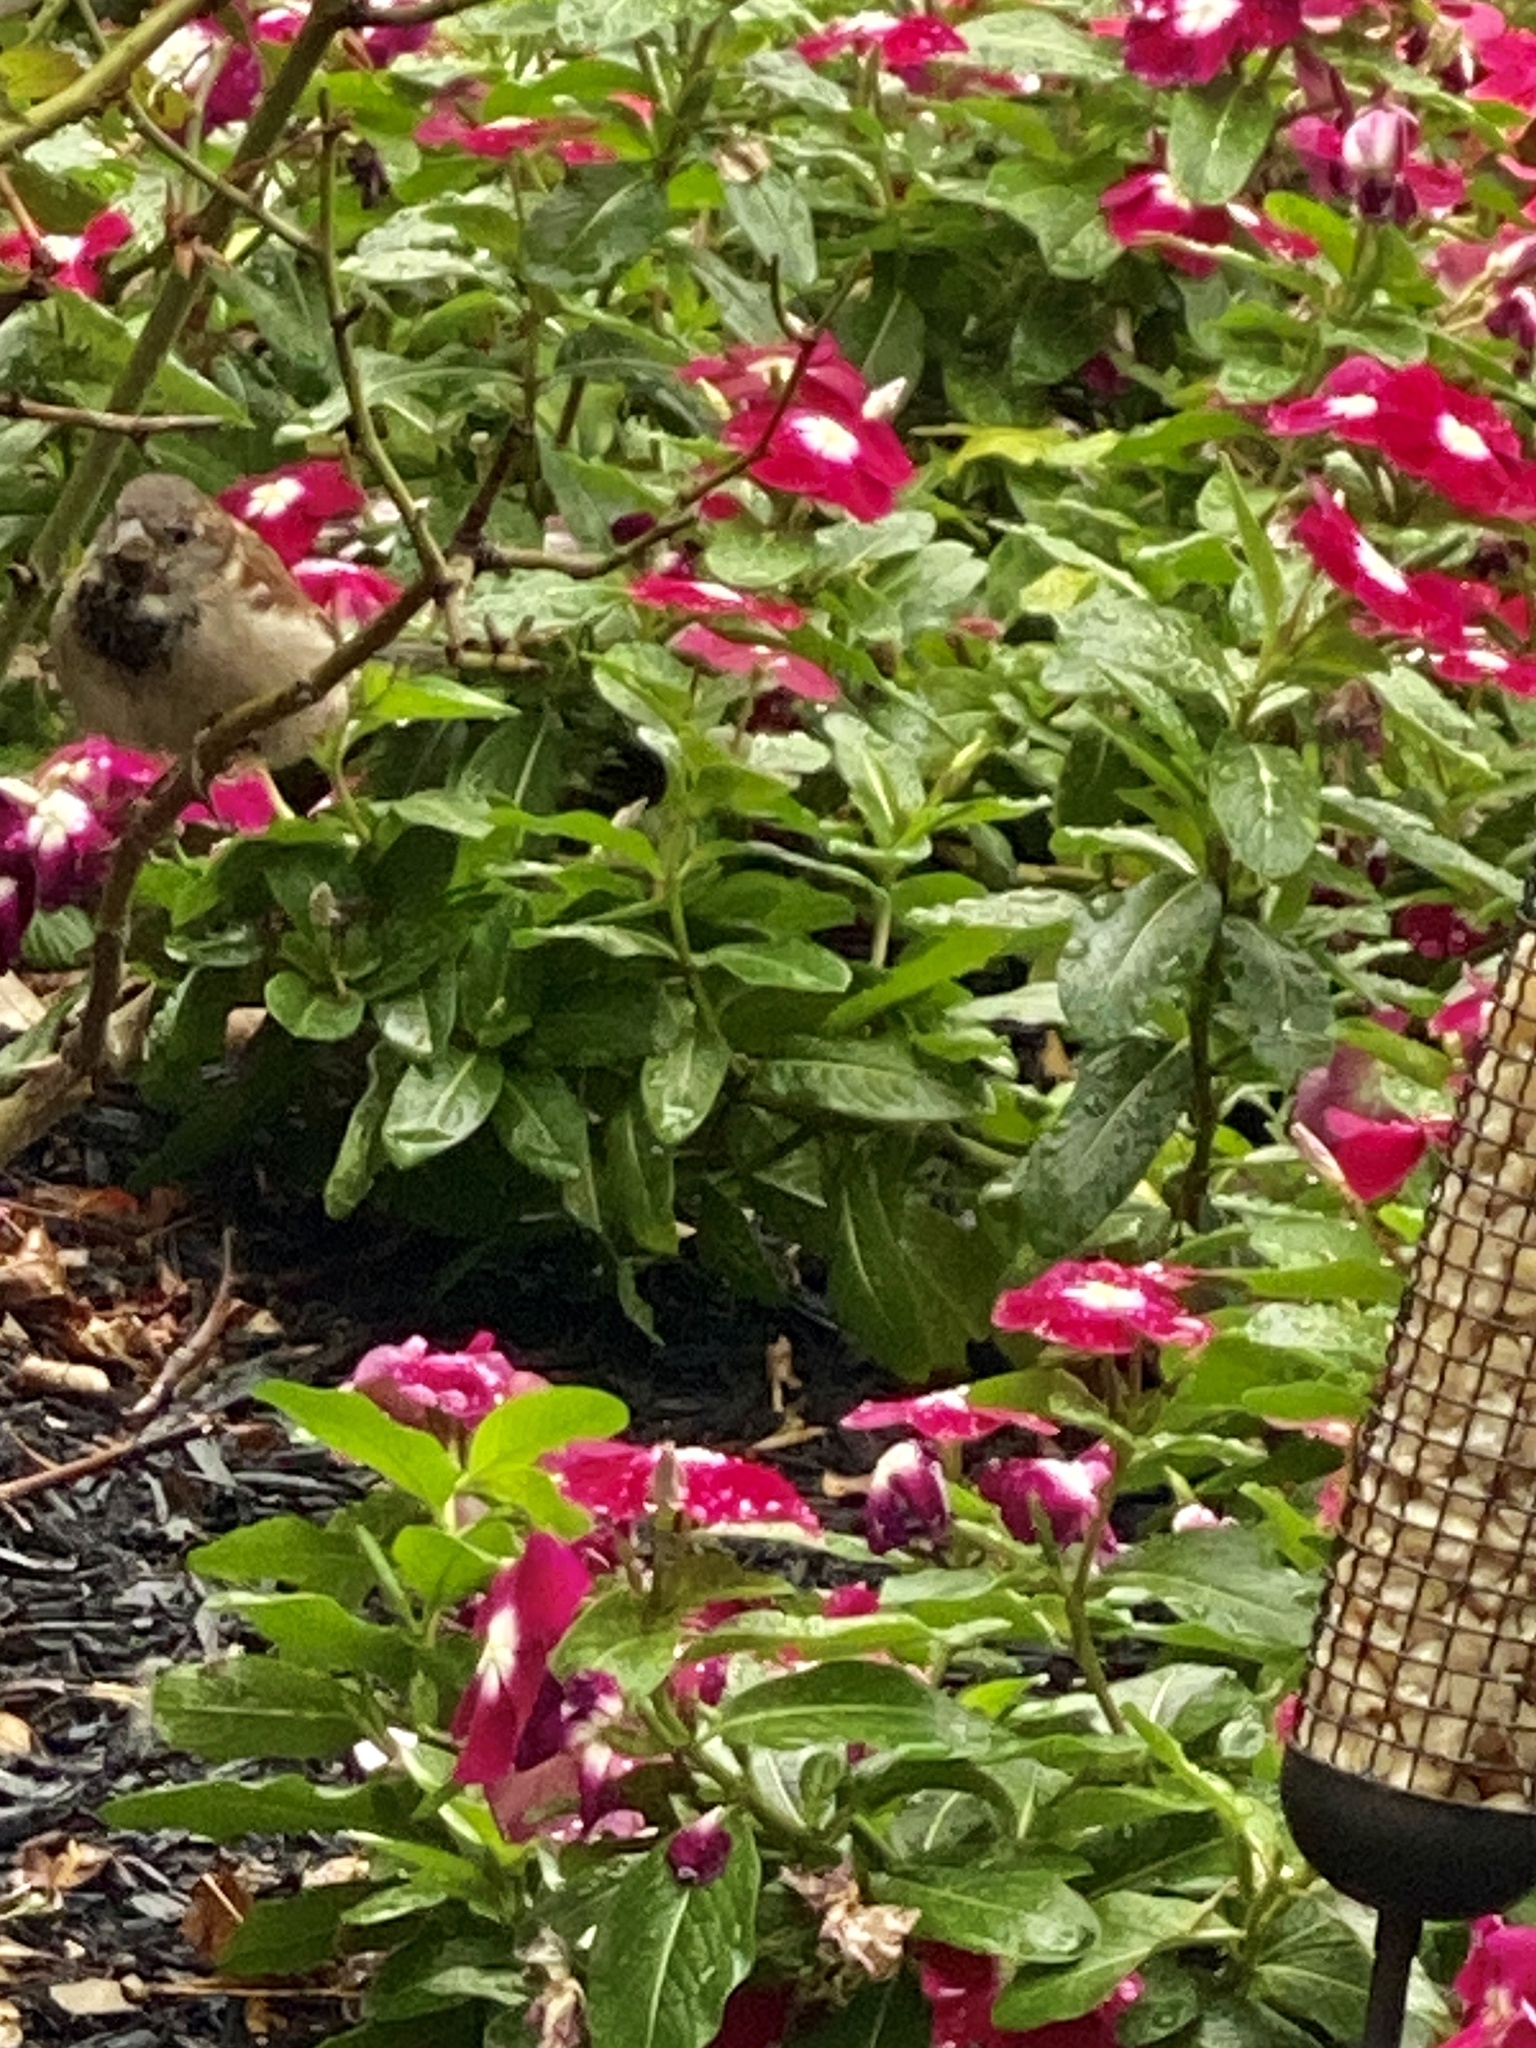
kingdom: Animalia
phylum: Chordata
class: Aves
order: Passeriformes
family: Passeridae
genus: Passer
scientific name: Passer domesticus
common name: House sparrow
